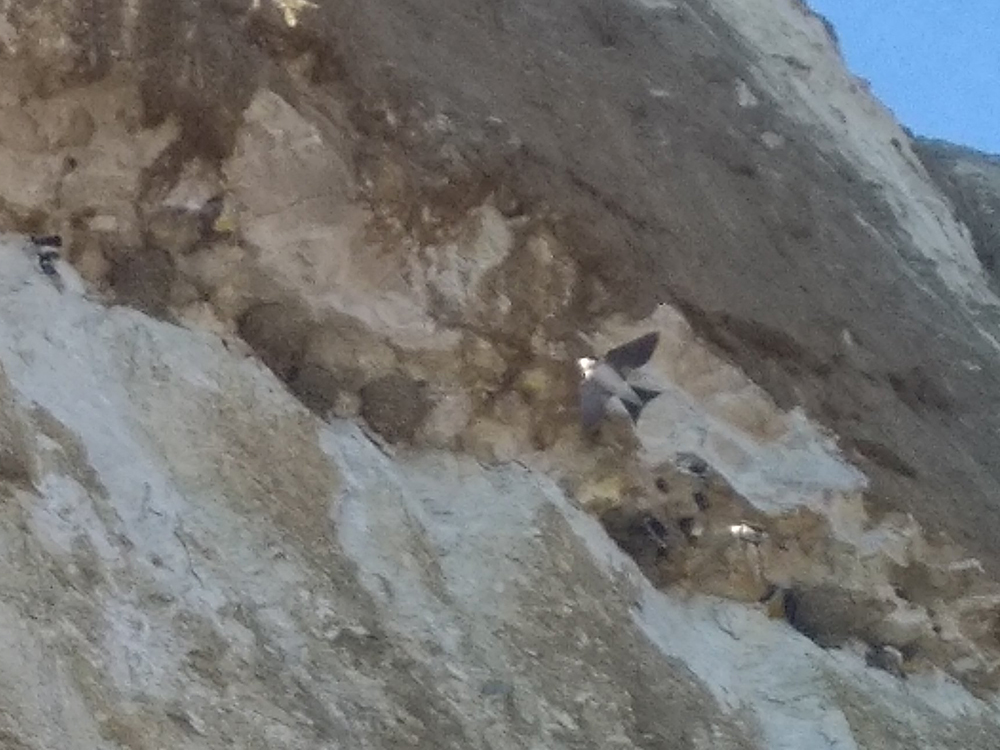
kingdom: Animalia
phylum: Chordata
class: Aves
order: Passeriformes
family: Hirundinidae
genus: Delichon
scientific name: Delichon urbicum
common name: Common house martin
